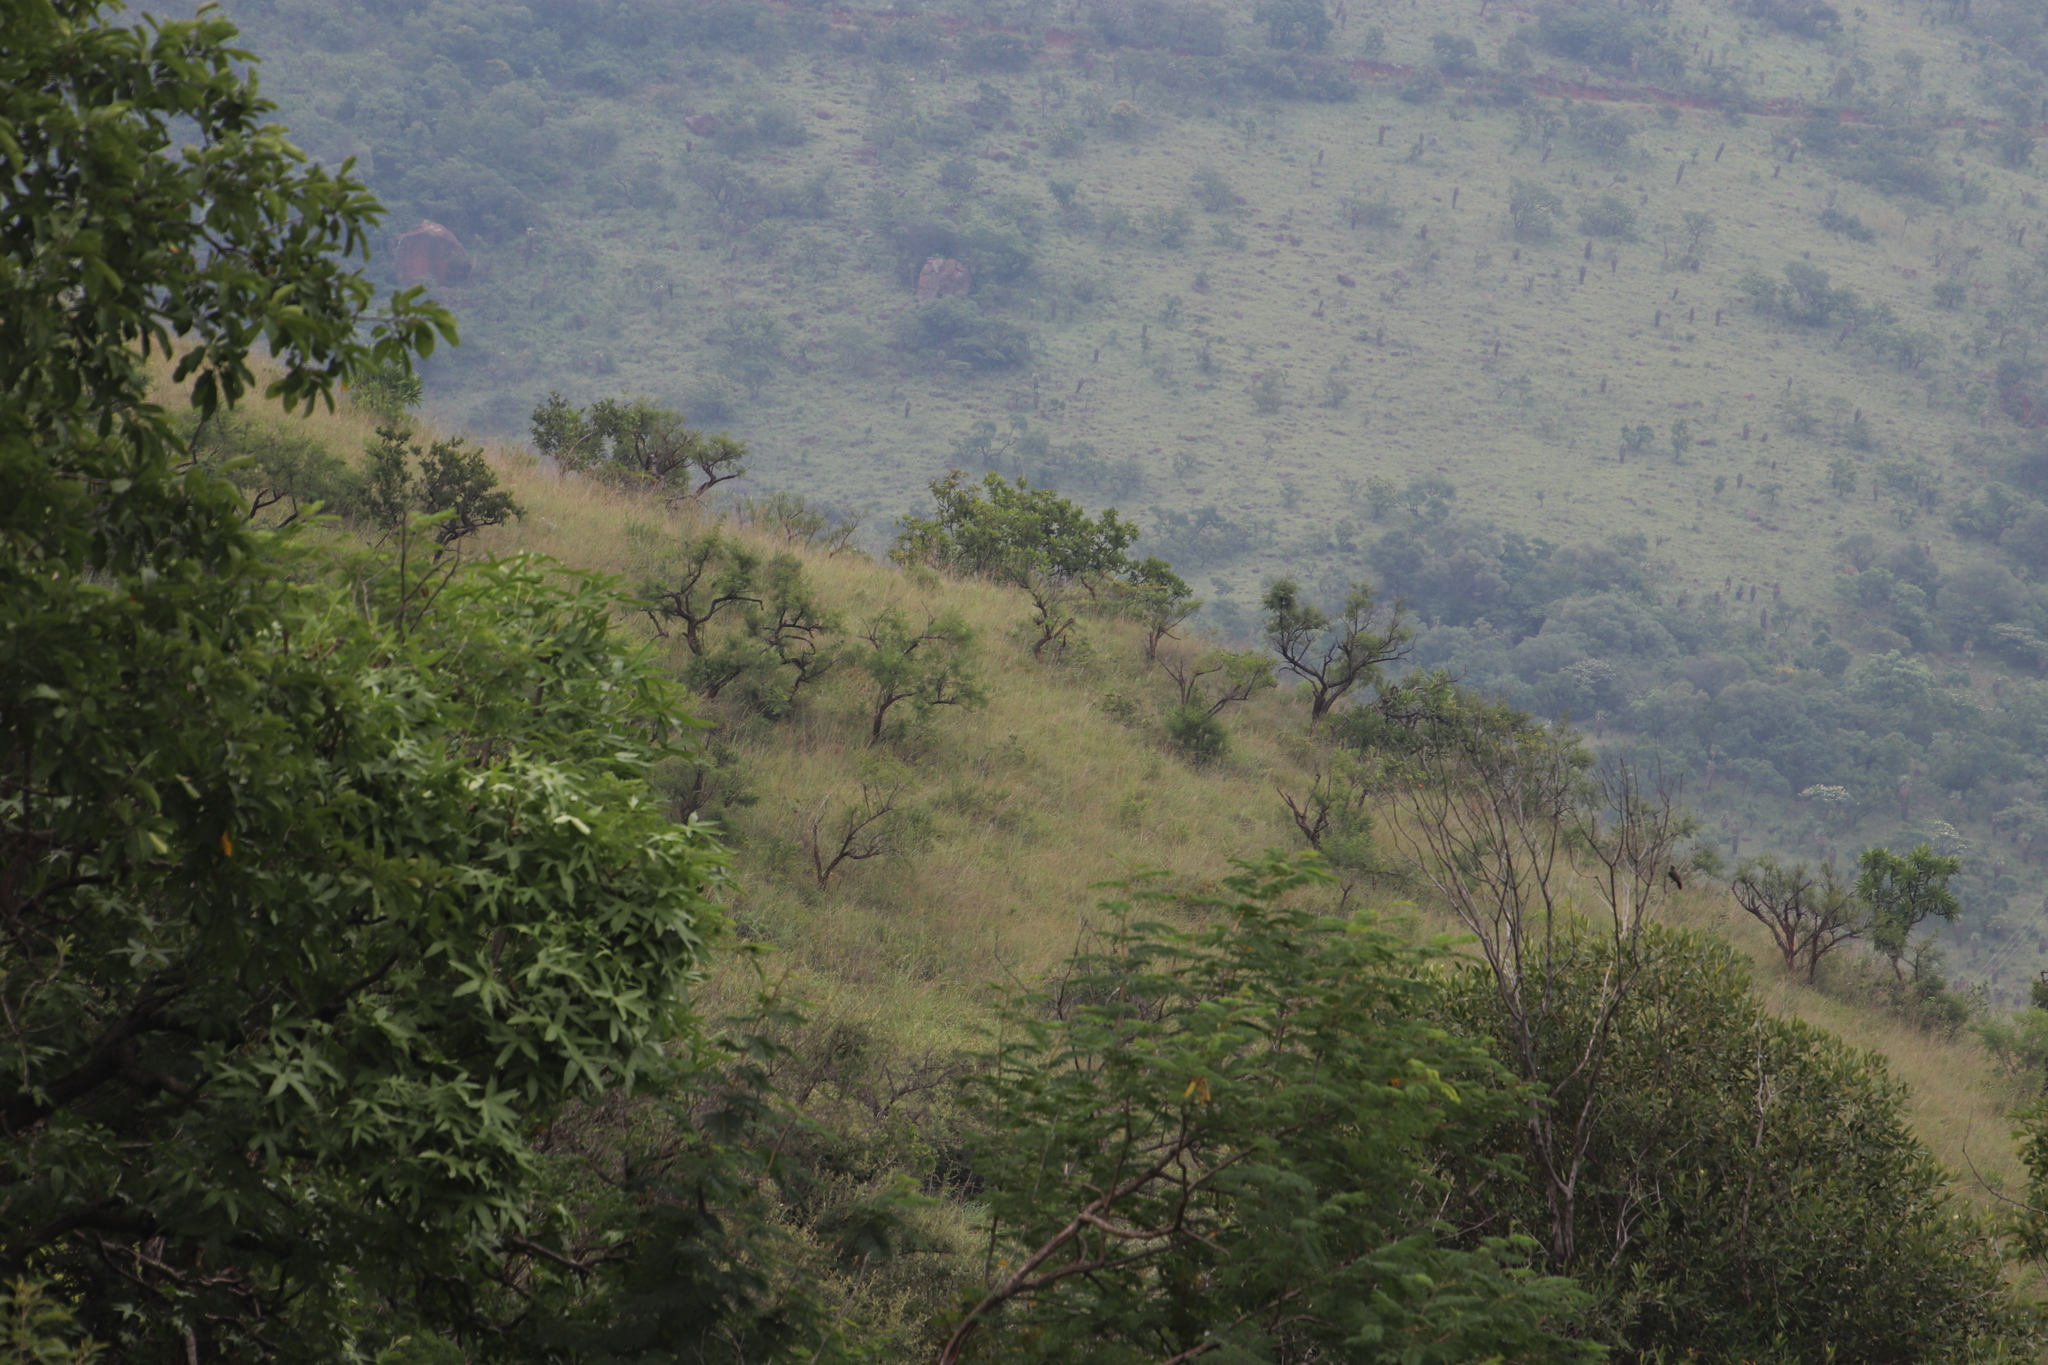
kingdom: Plantae
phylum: Tracheophyta
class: Magnoliopsida
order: Proteales
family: Proteaceae
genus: Protea
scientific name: Protea gaguedi
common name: African protea
